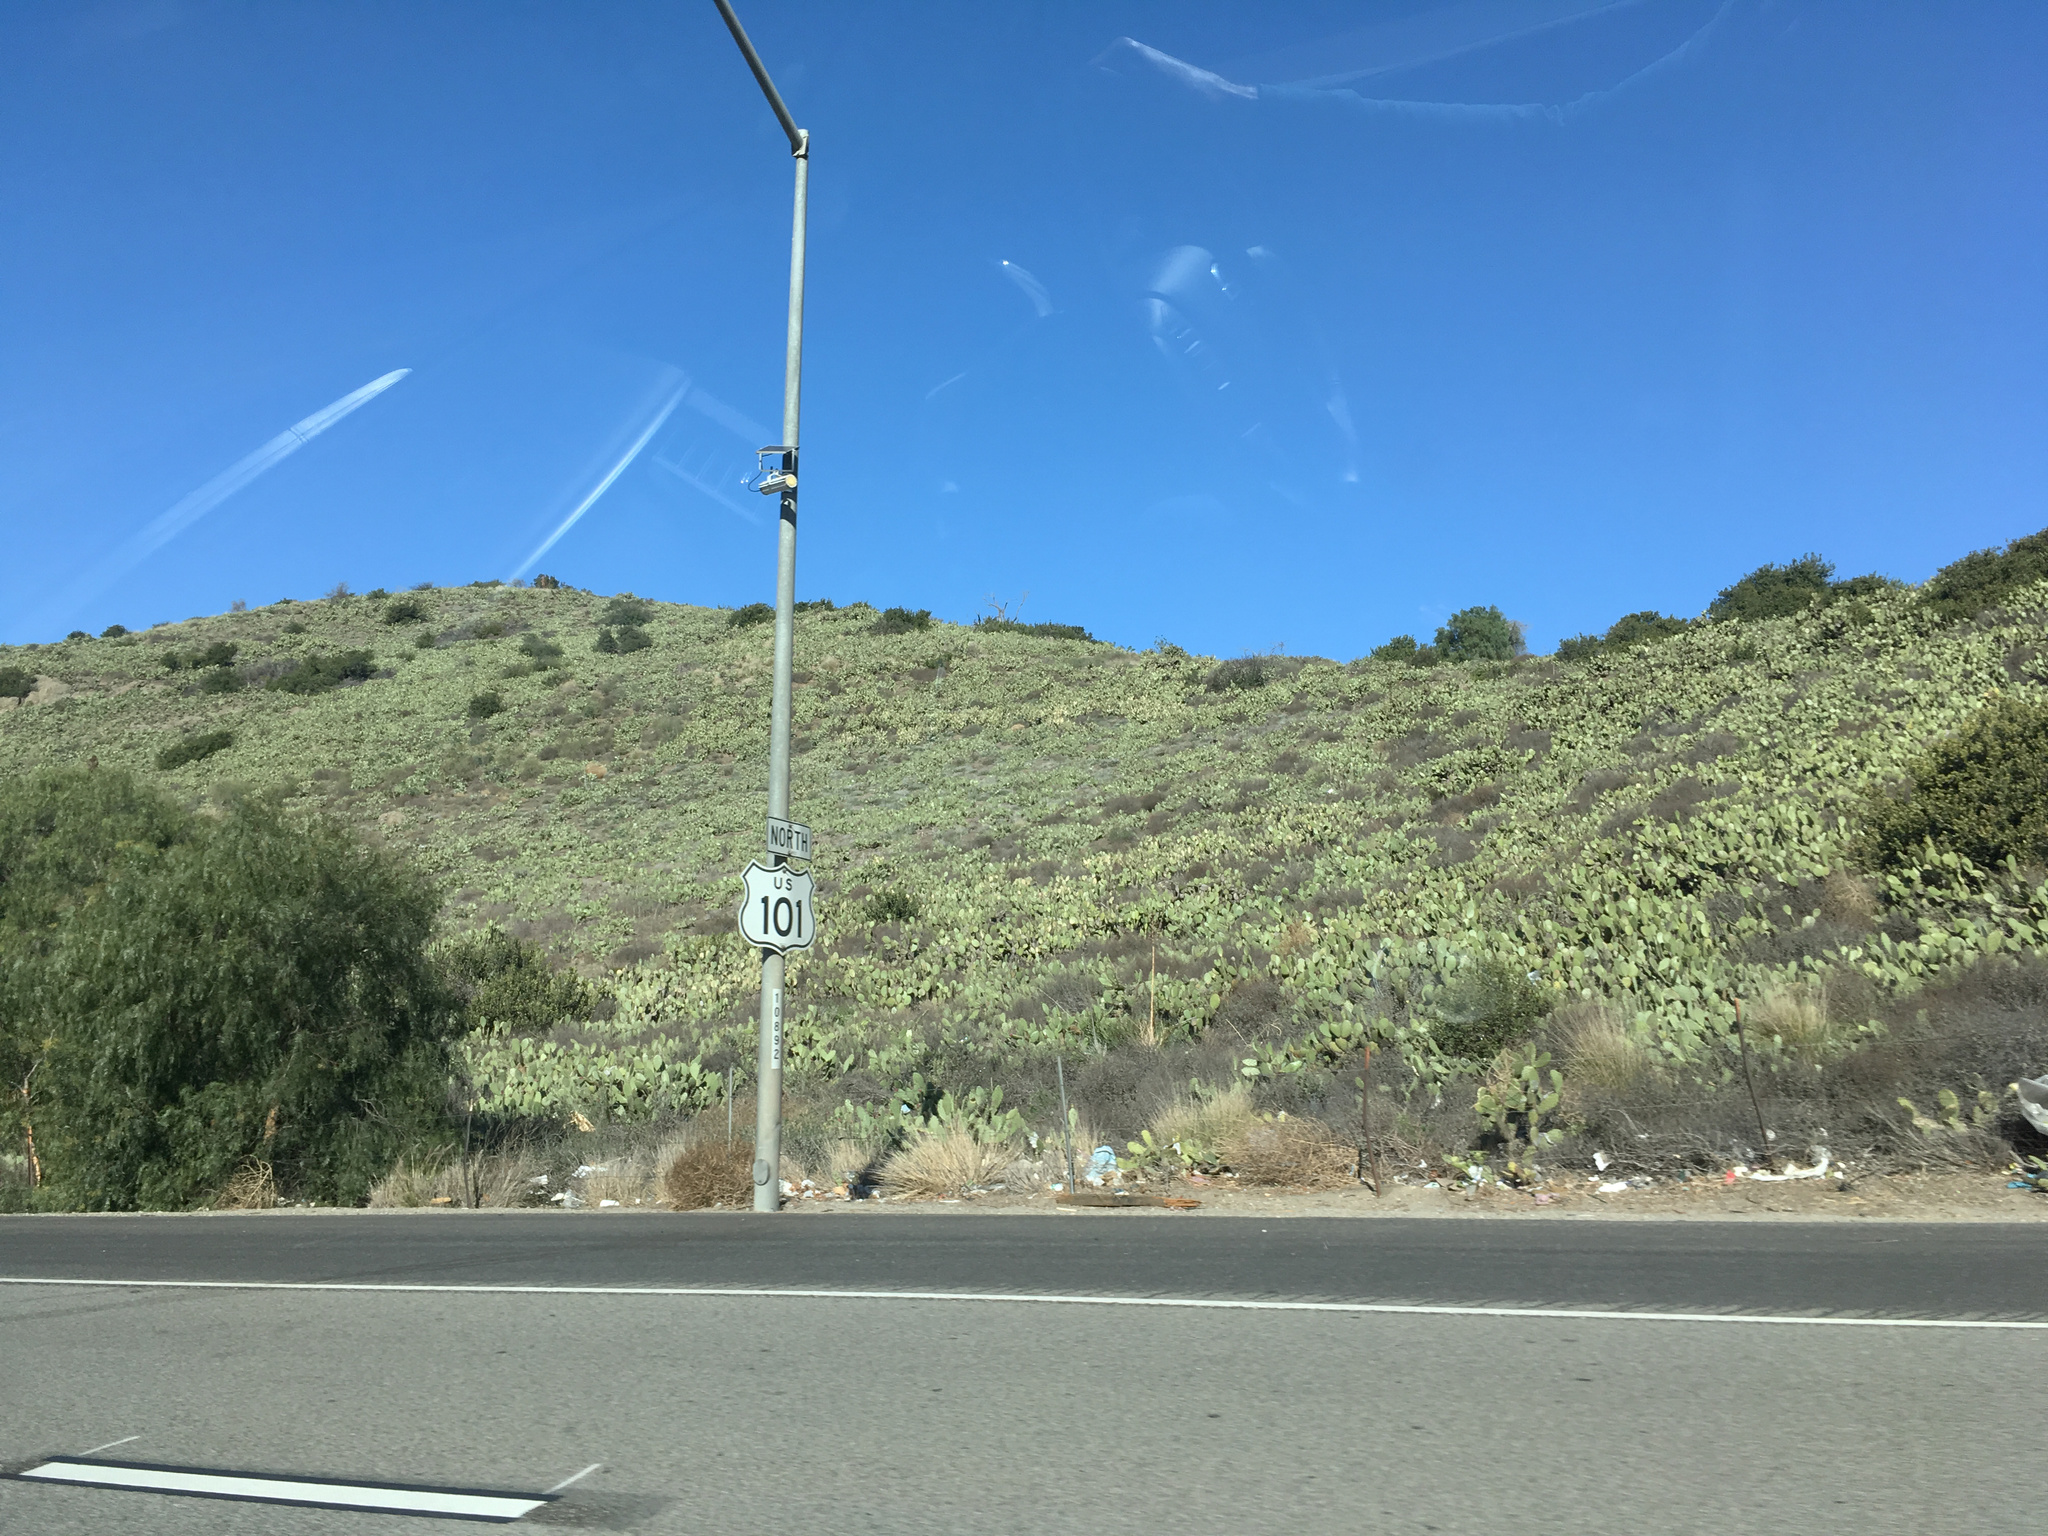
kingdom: Plantae
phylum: Tracheophyta
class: Magnoliopsida
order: Caryophyllales
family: Cactaceae
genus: Opuntia
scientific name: Opuntia littoralis
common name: Coastal prickly-pear
